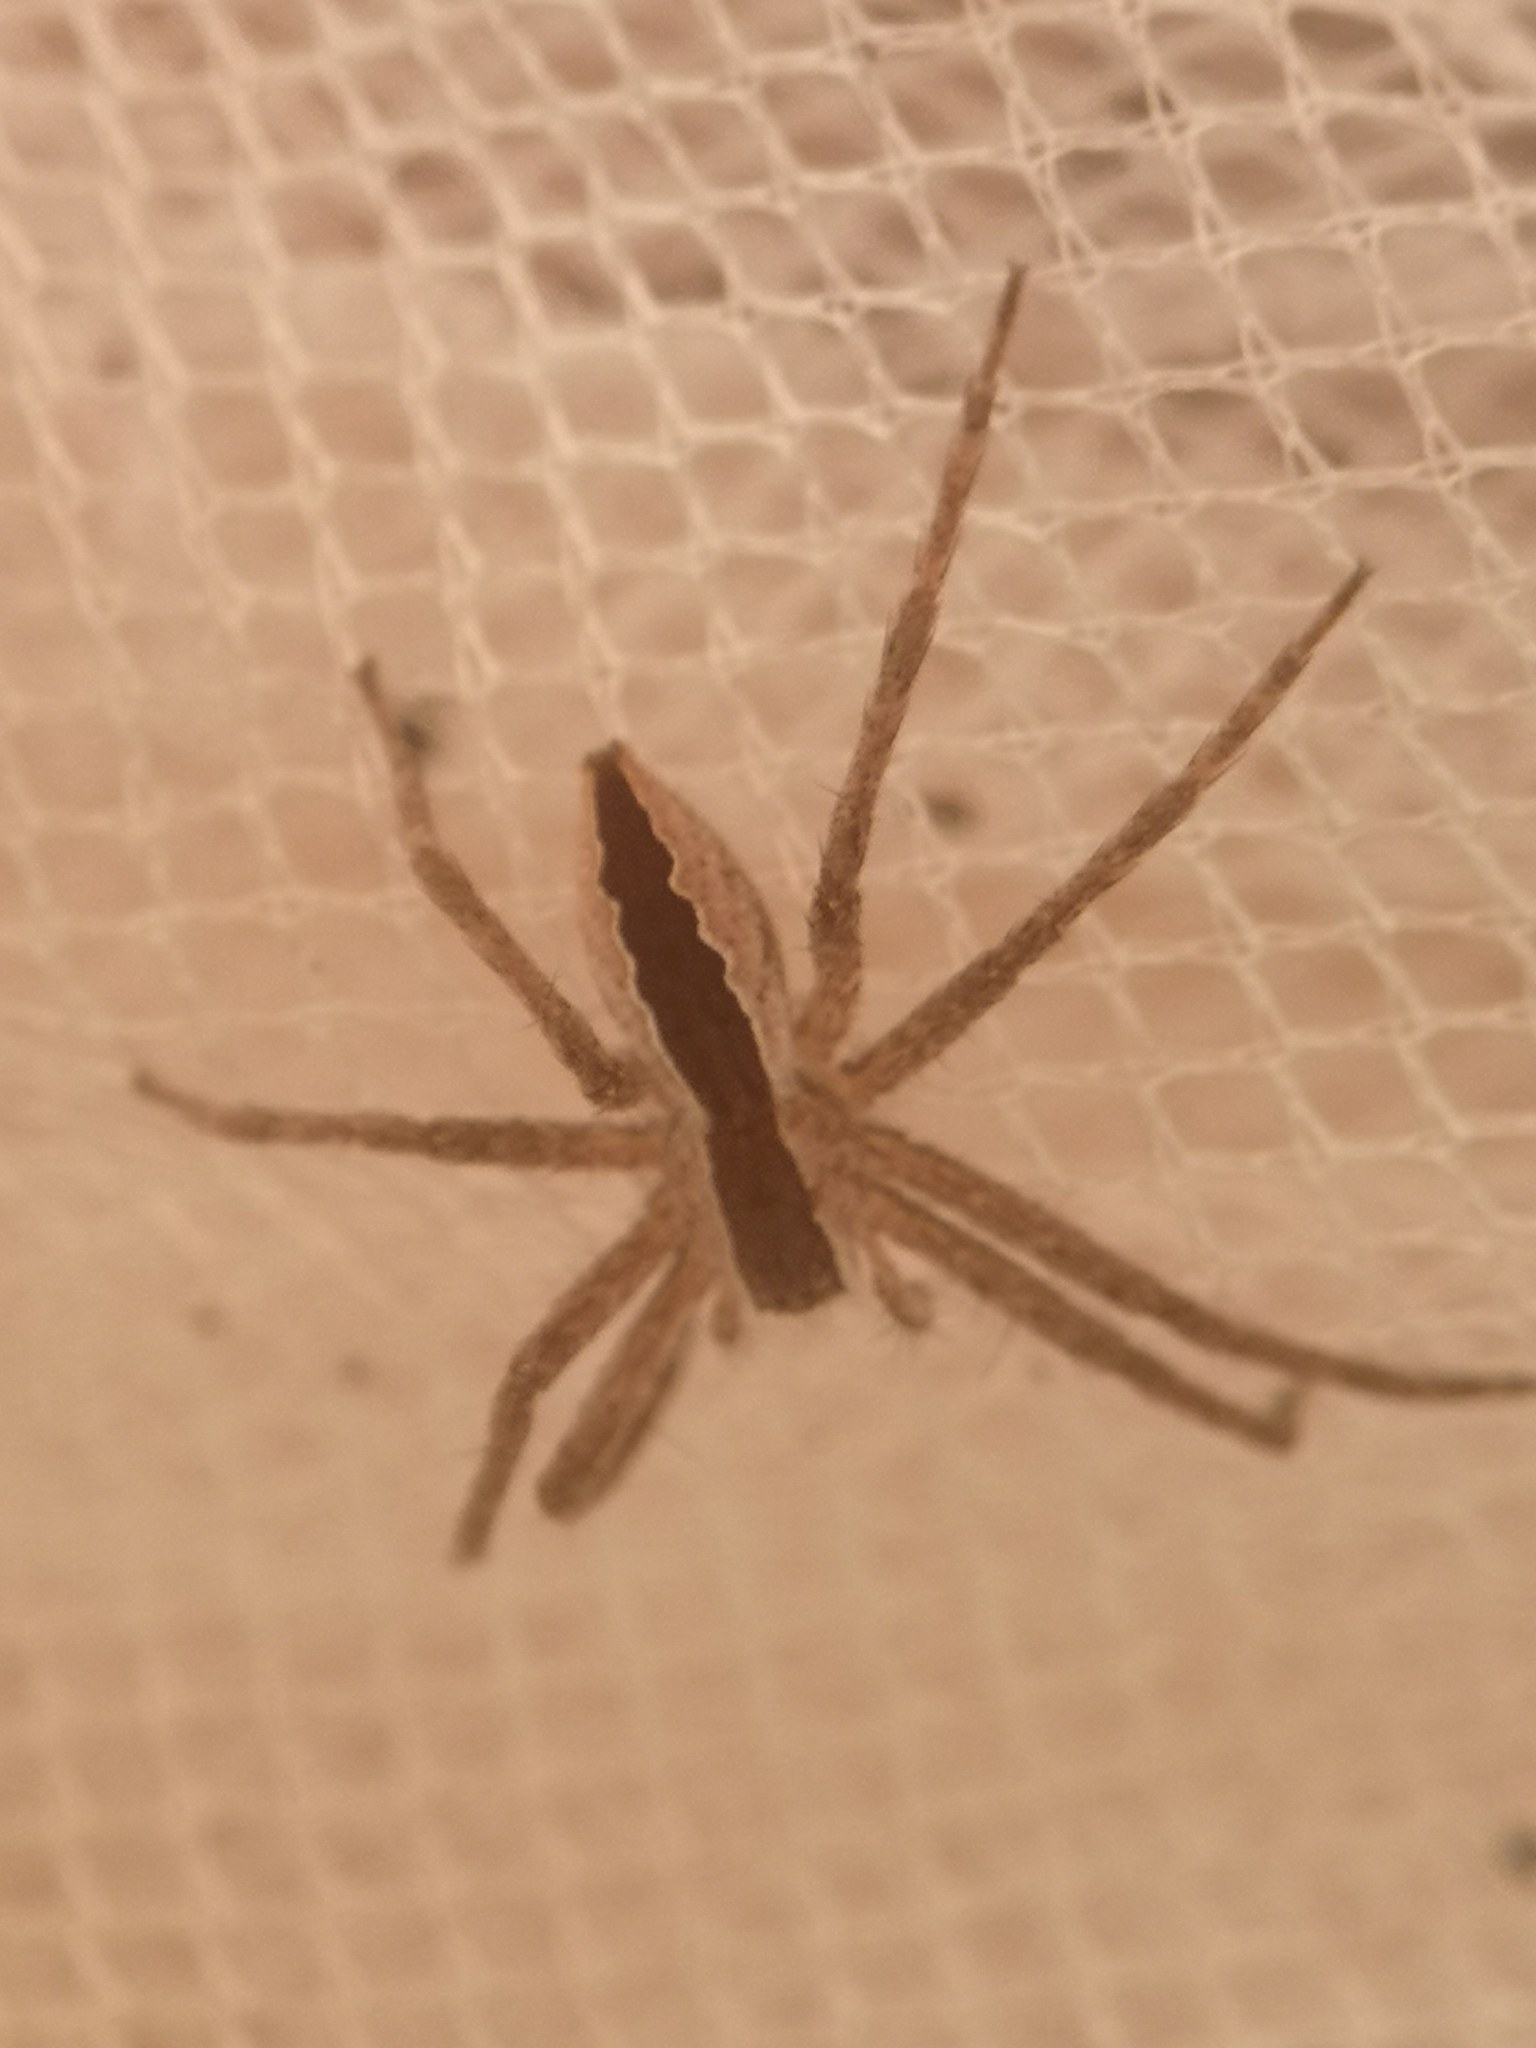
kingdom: Animalia
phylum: Arthropoda
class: Arachnida
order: Araneae
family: Pisauridae
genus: Pisaurina
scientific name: Pisaurina mira
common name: American nursery web spider
